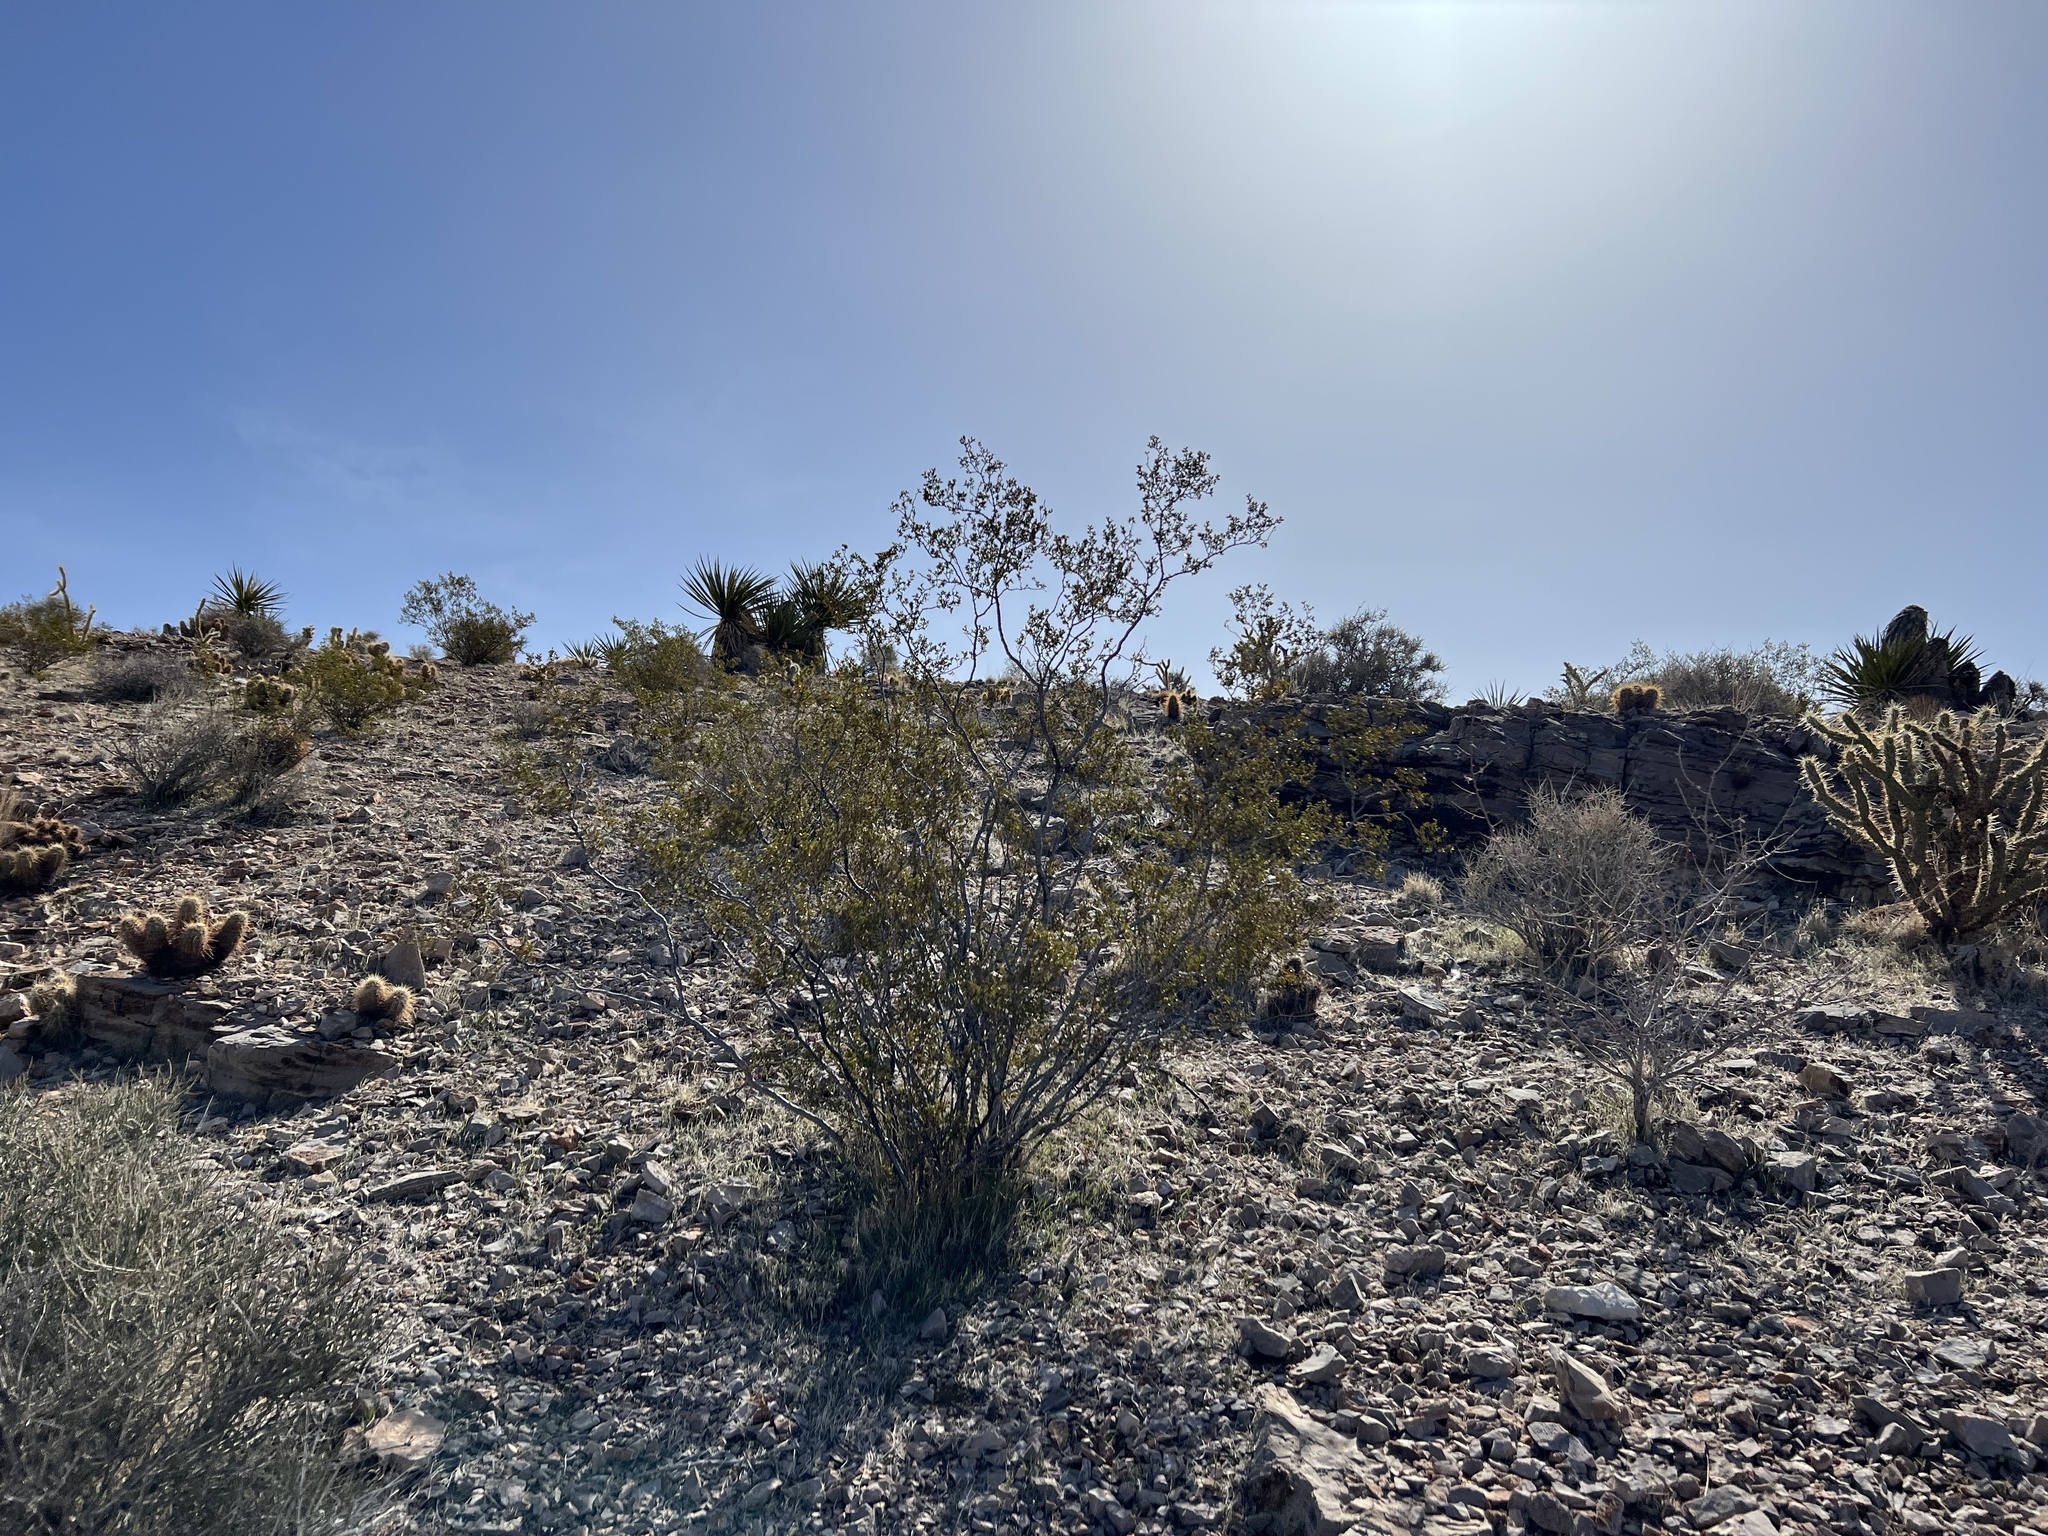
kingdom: Plantae
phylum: Tracheophyta
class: Magnoliopsida
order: Zygophyllales
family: Zygophyllaceae
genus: Larrea
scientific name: Larrea tridentata
